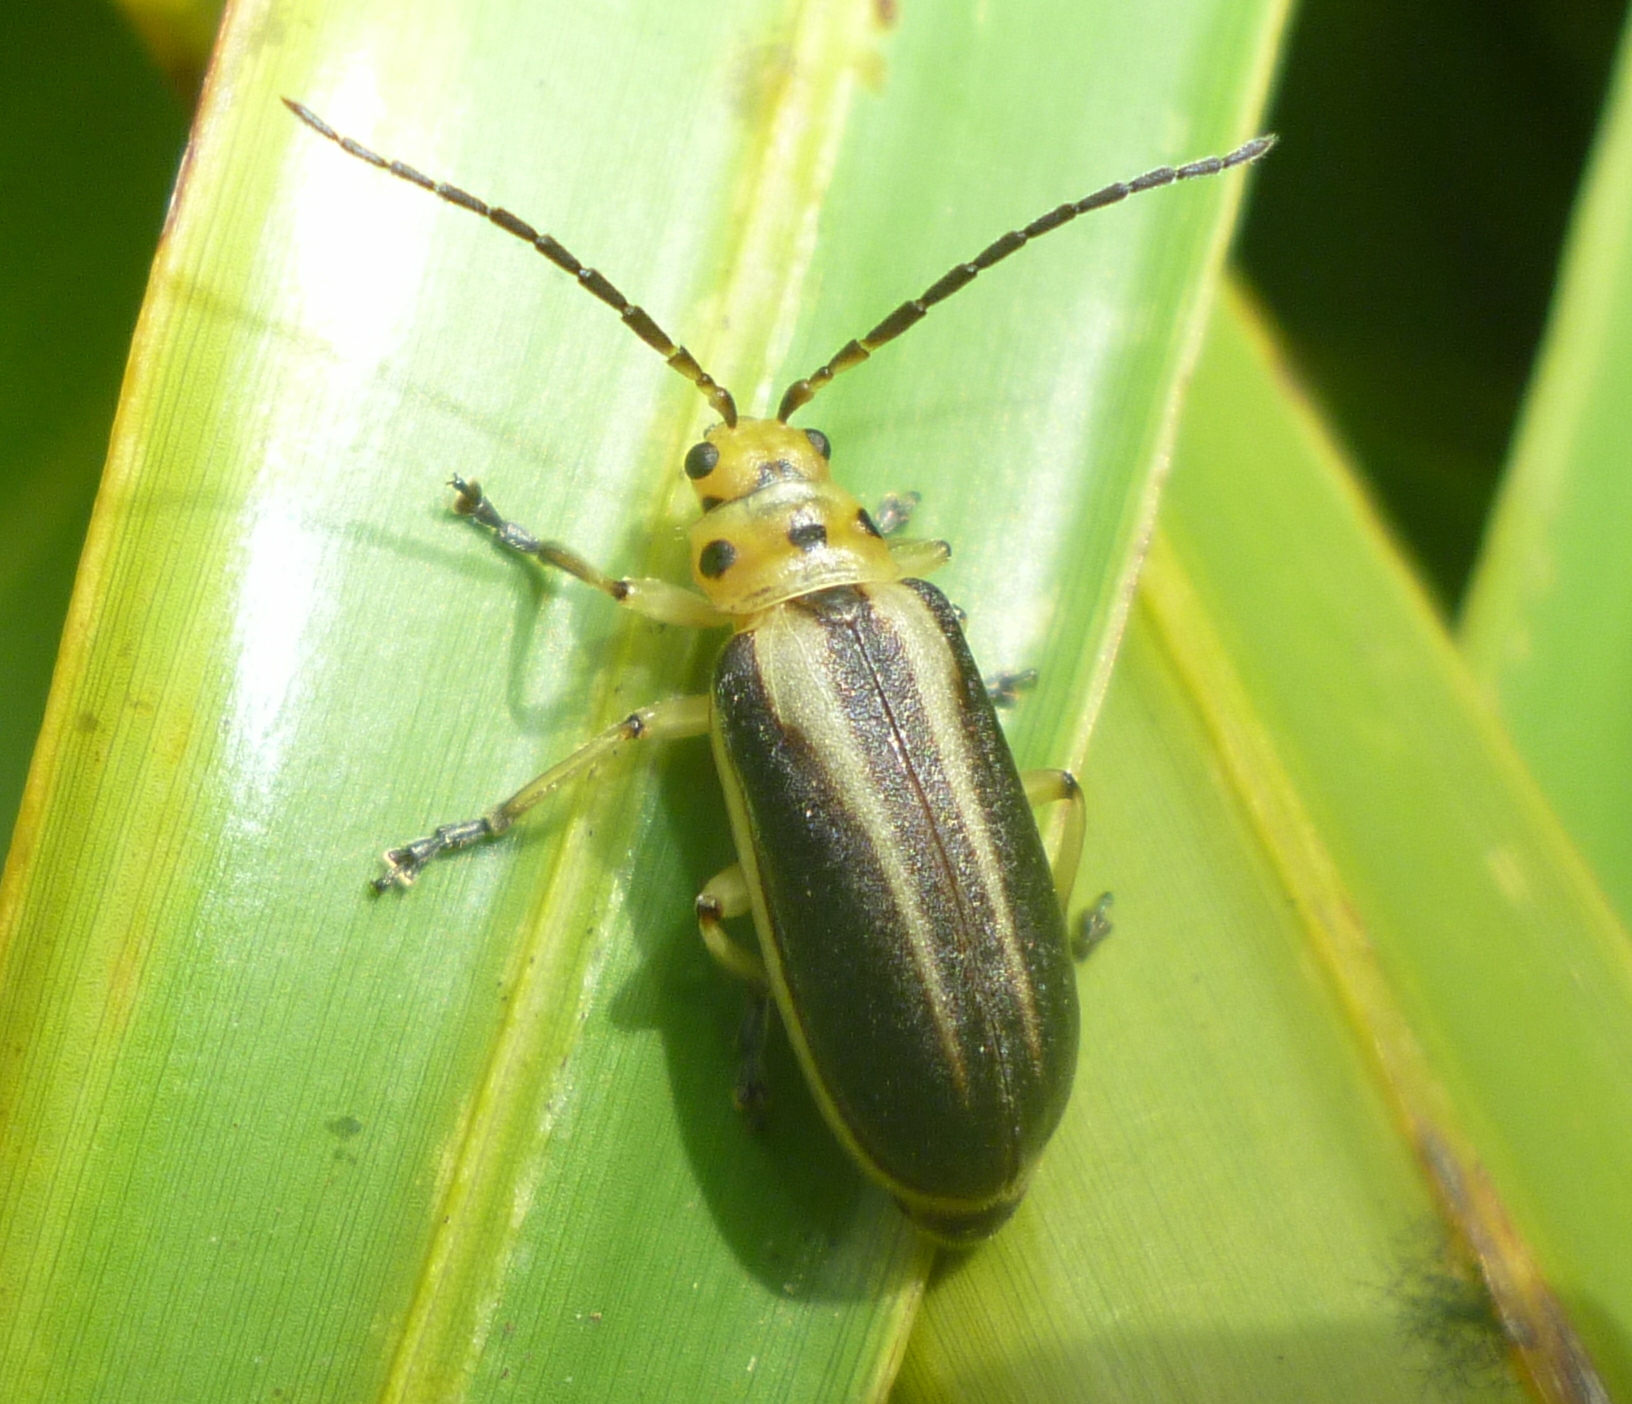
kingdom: Animalia
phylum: Arthropoda
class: Insecta
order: Coleoptera
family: Chrysomelidae
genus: Trirhabda
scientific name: Trirhabda bacharidis
